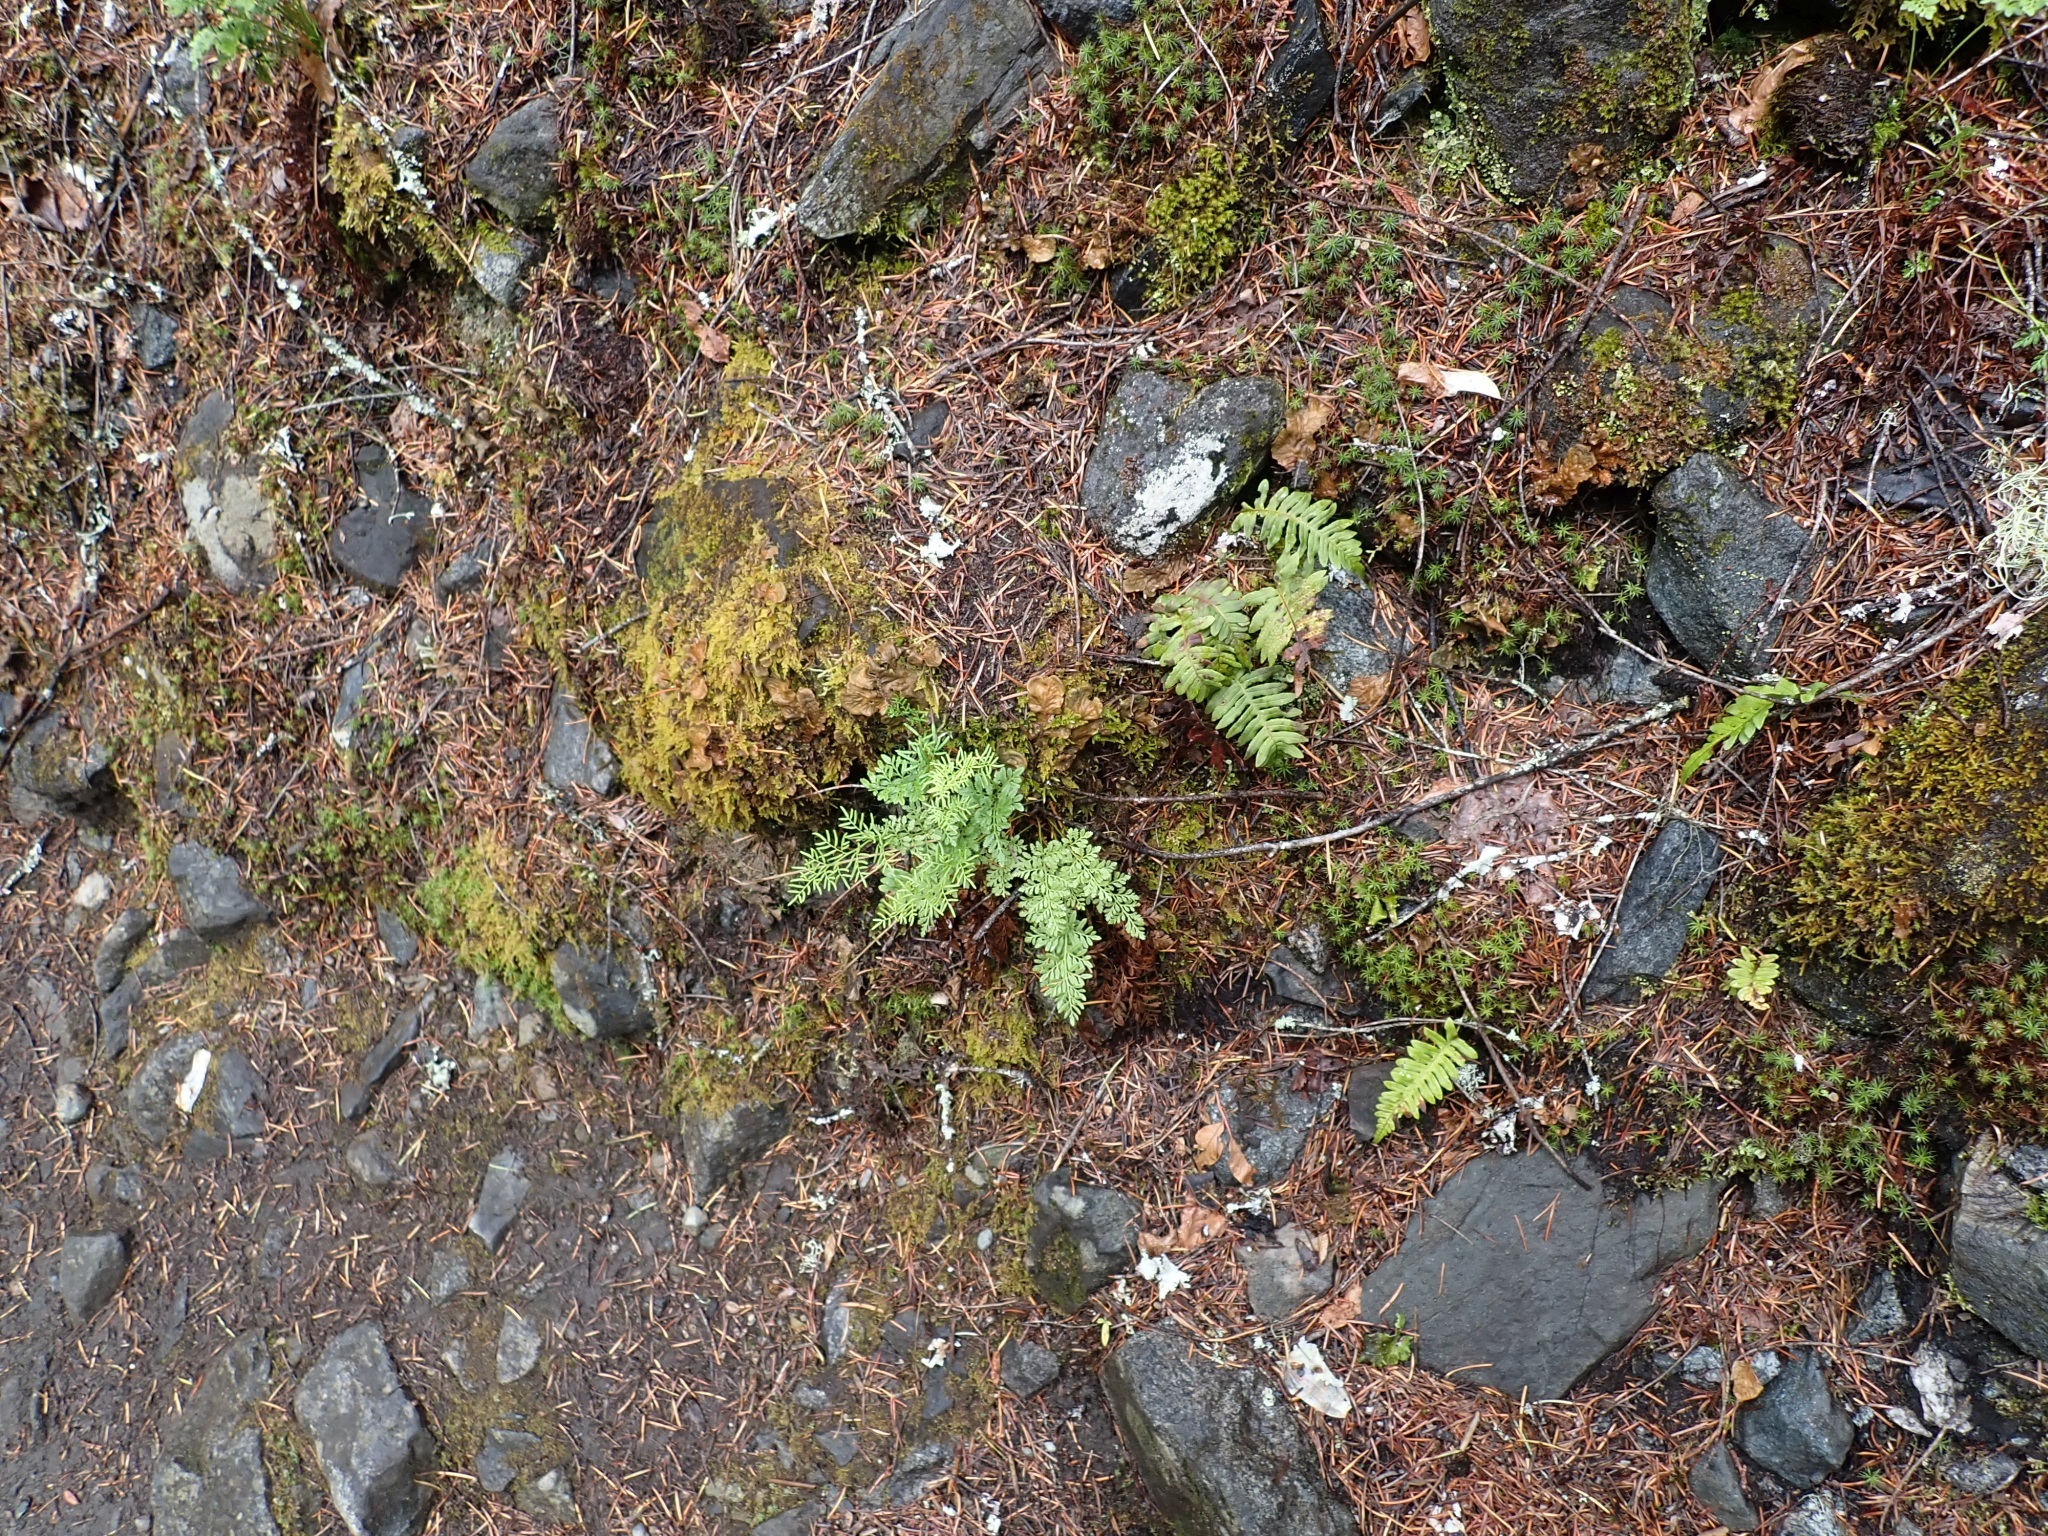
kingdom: Plantae
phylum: Tracheophyta
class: Polypodiopsida
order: Polypodiales
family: Pteridaceae
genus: Cryptogramma
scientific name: Cryptogramma acrostichoides
